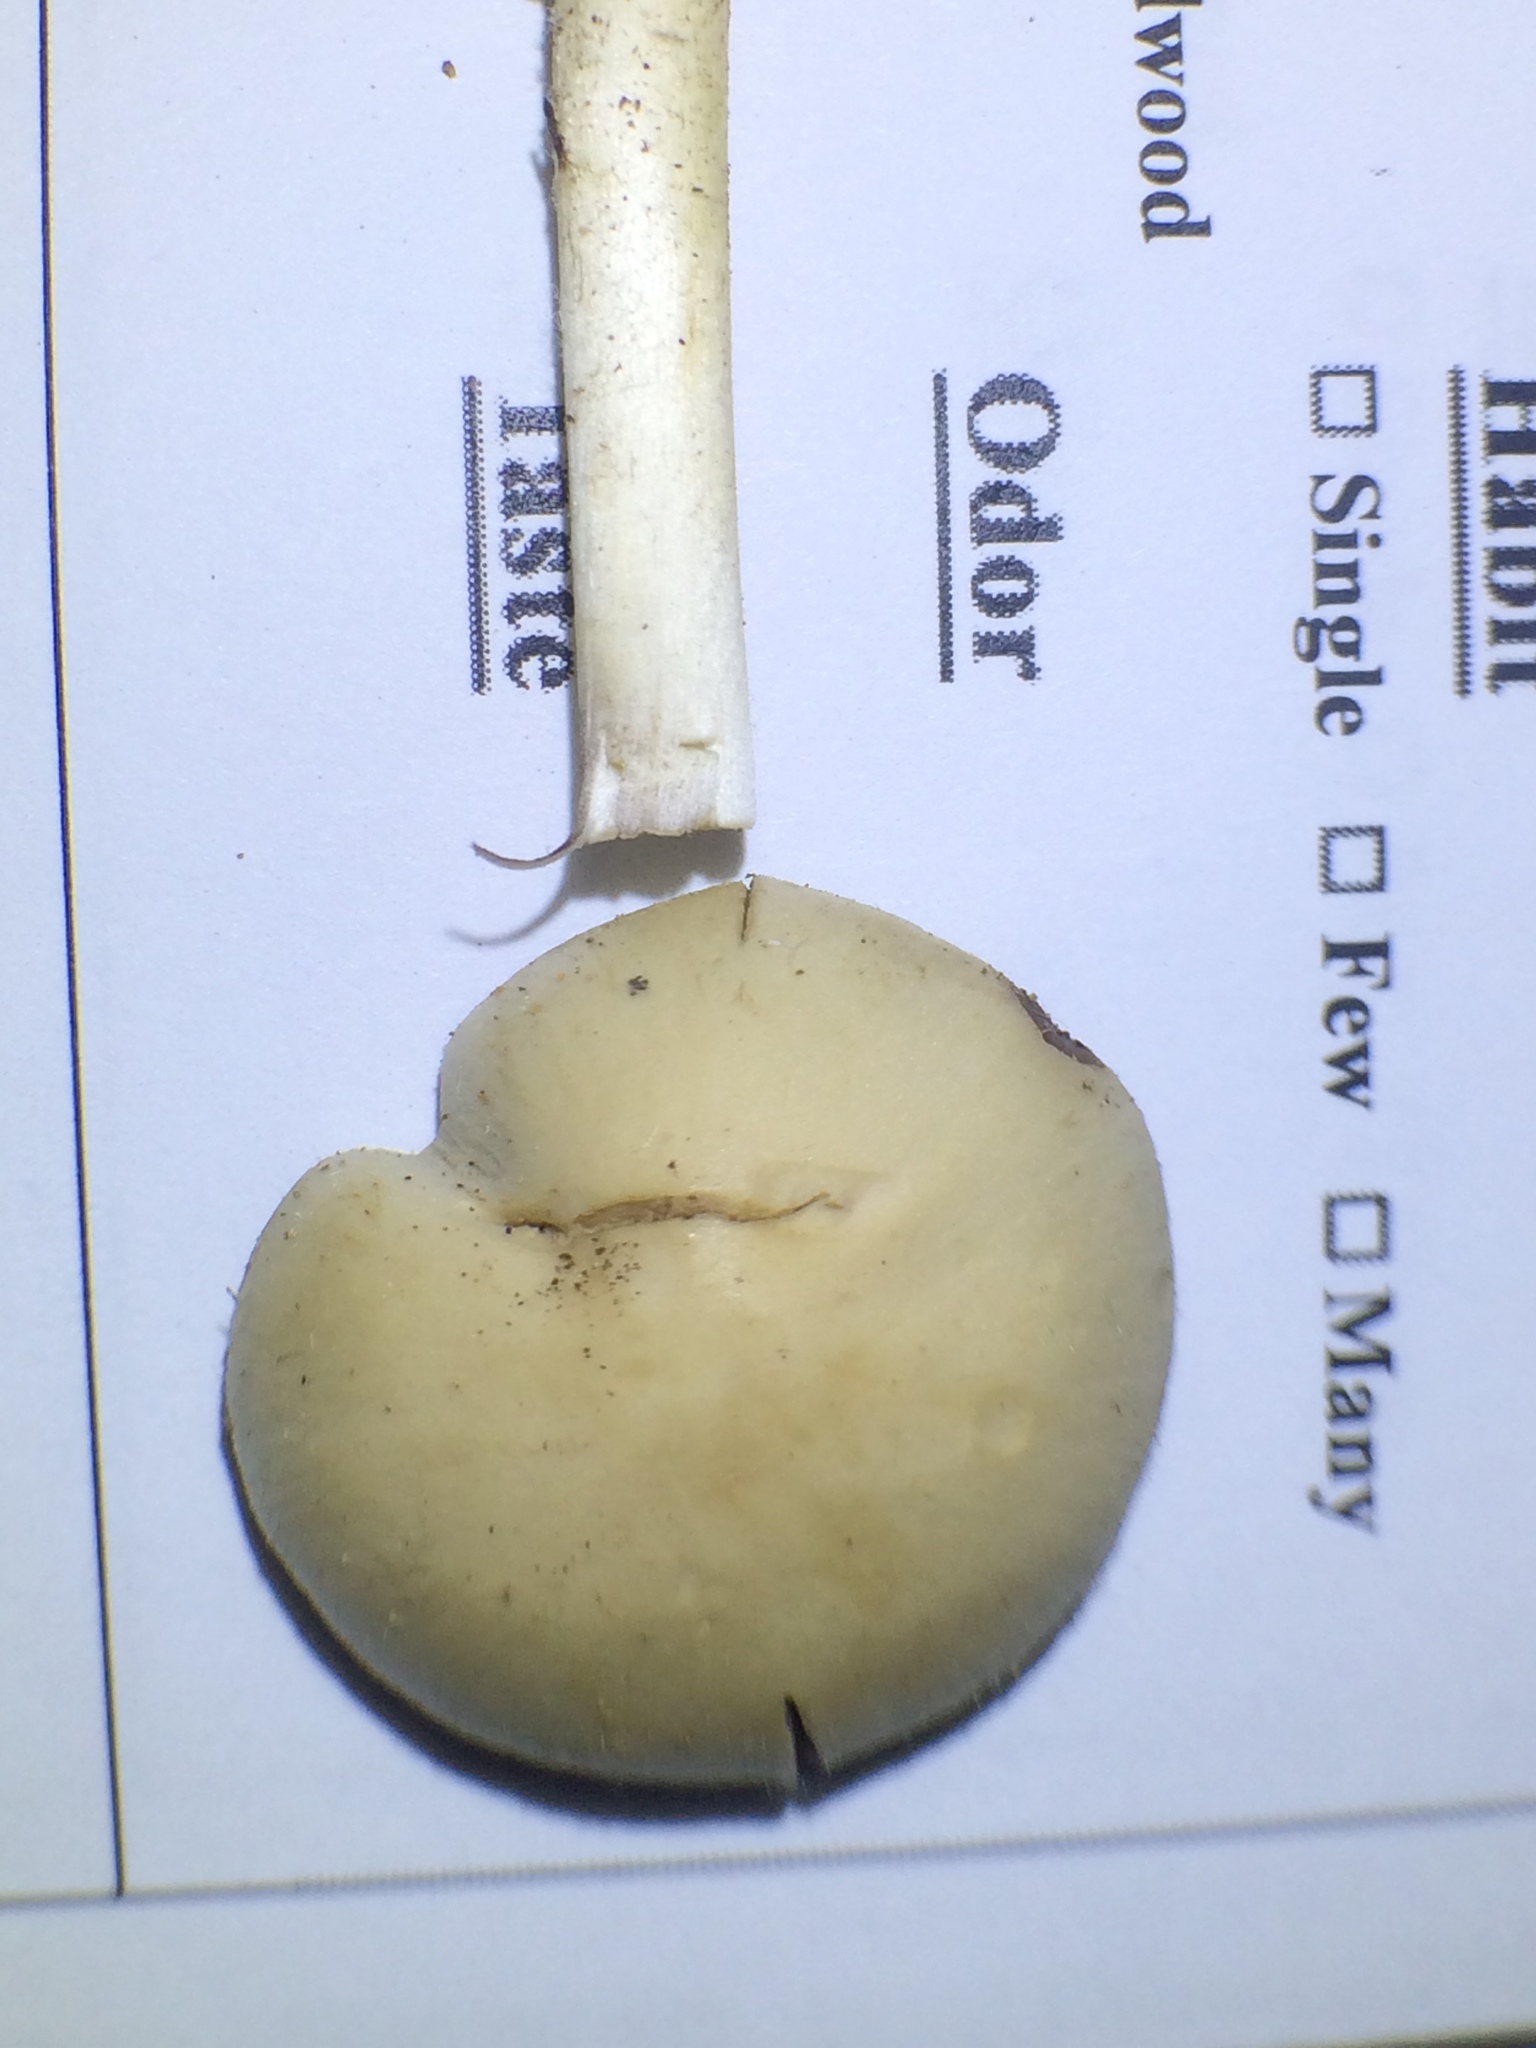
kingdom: Fungi
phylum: Basidiomycota
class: Agaricomycetes
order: Agaricales
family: Psathyrellaceae
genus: Psathyrella
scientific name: Psathyrella kauffmanii
